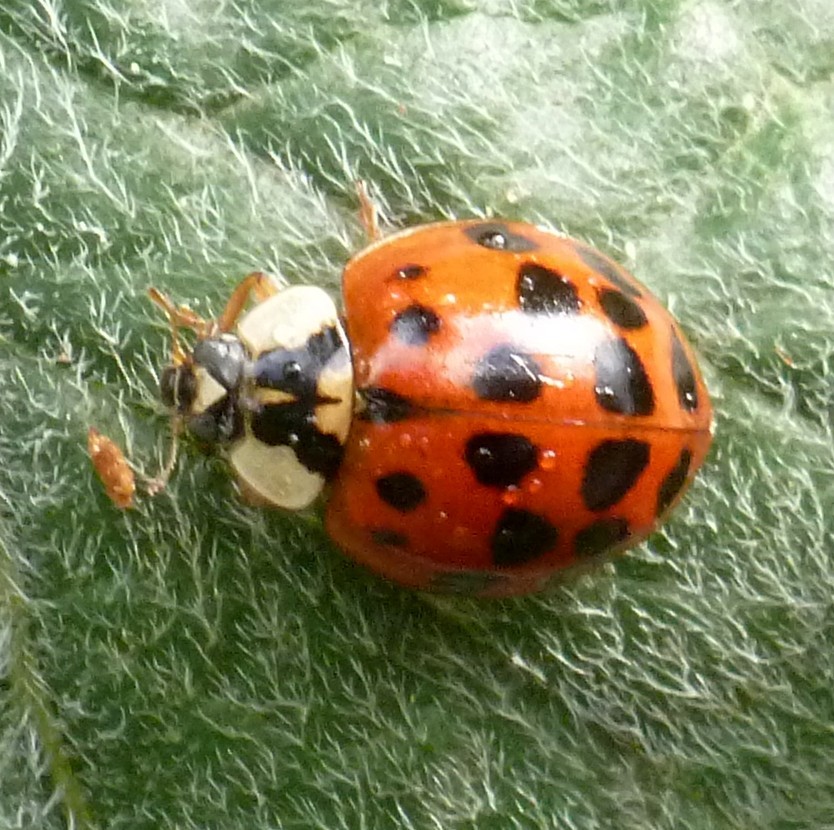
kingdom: Animalia
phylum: Arthropoda
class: Insecta
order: Coleoptera
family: Coccinellidae
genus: Harmonia
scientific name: Harmonia axyridis
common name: Harlequin ladybird
